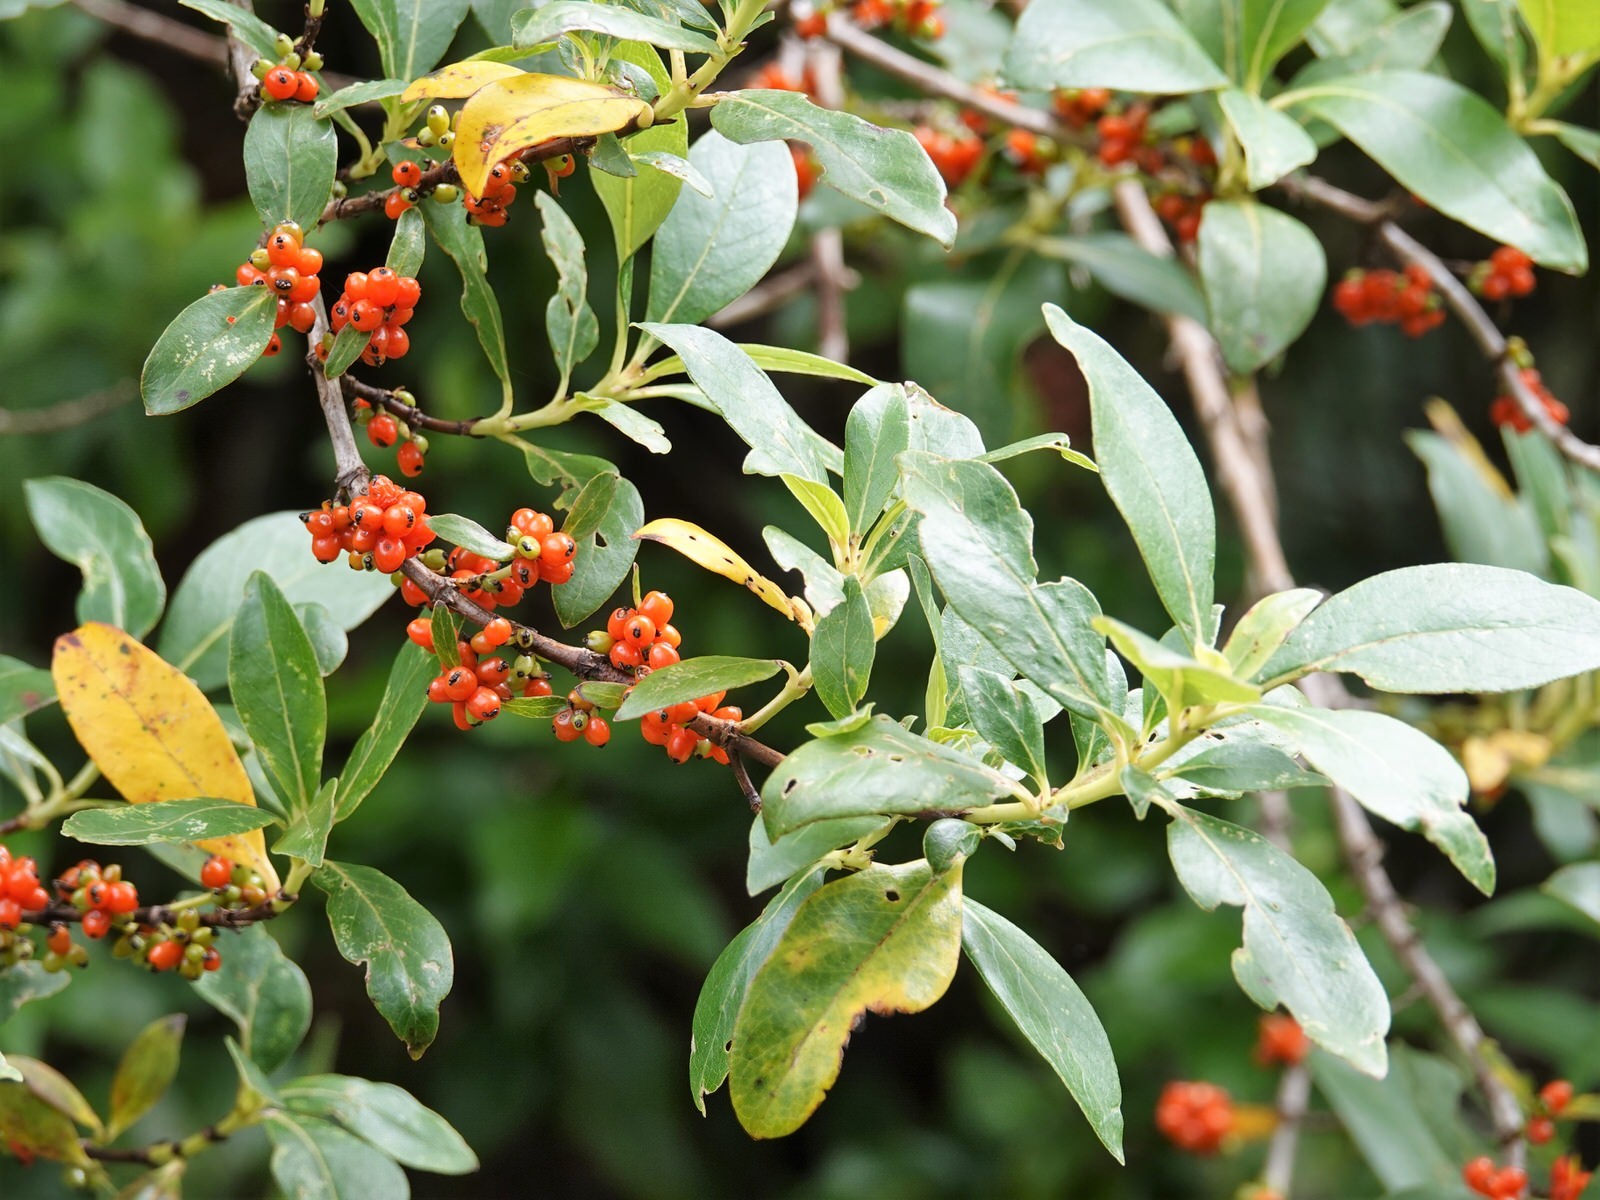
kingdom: Plantae
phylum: Tracheophyta
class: Magnoliopsida
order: Gentianales
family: Rubiaceae
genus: Coprosma
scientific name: Coprosma robusta
